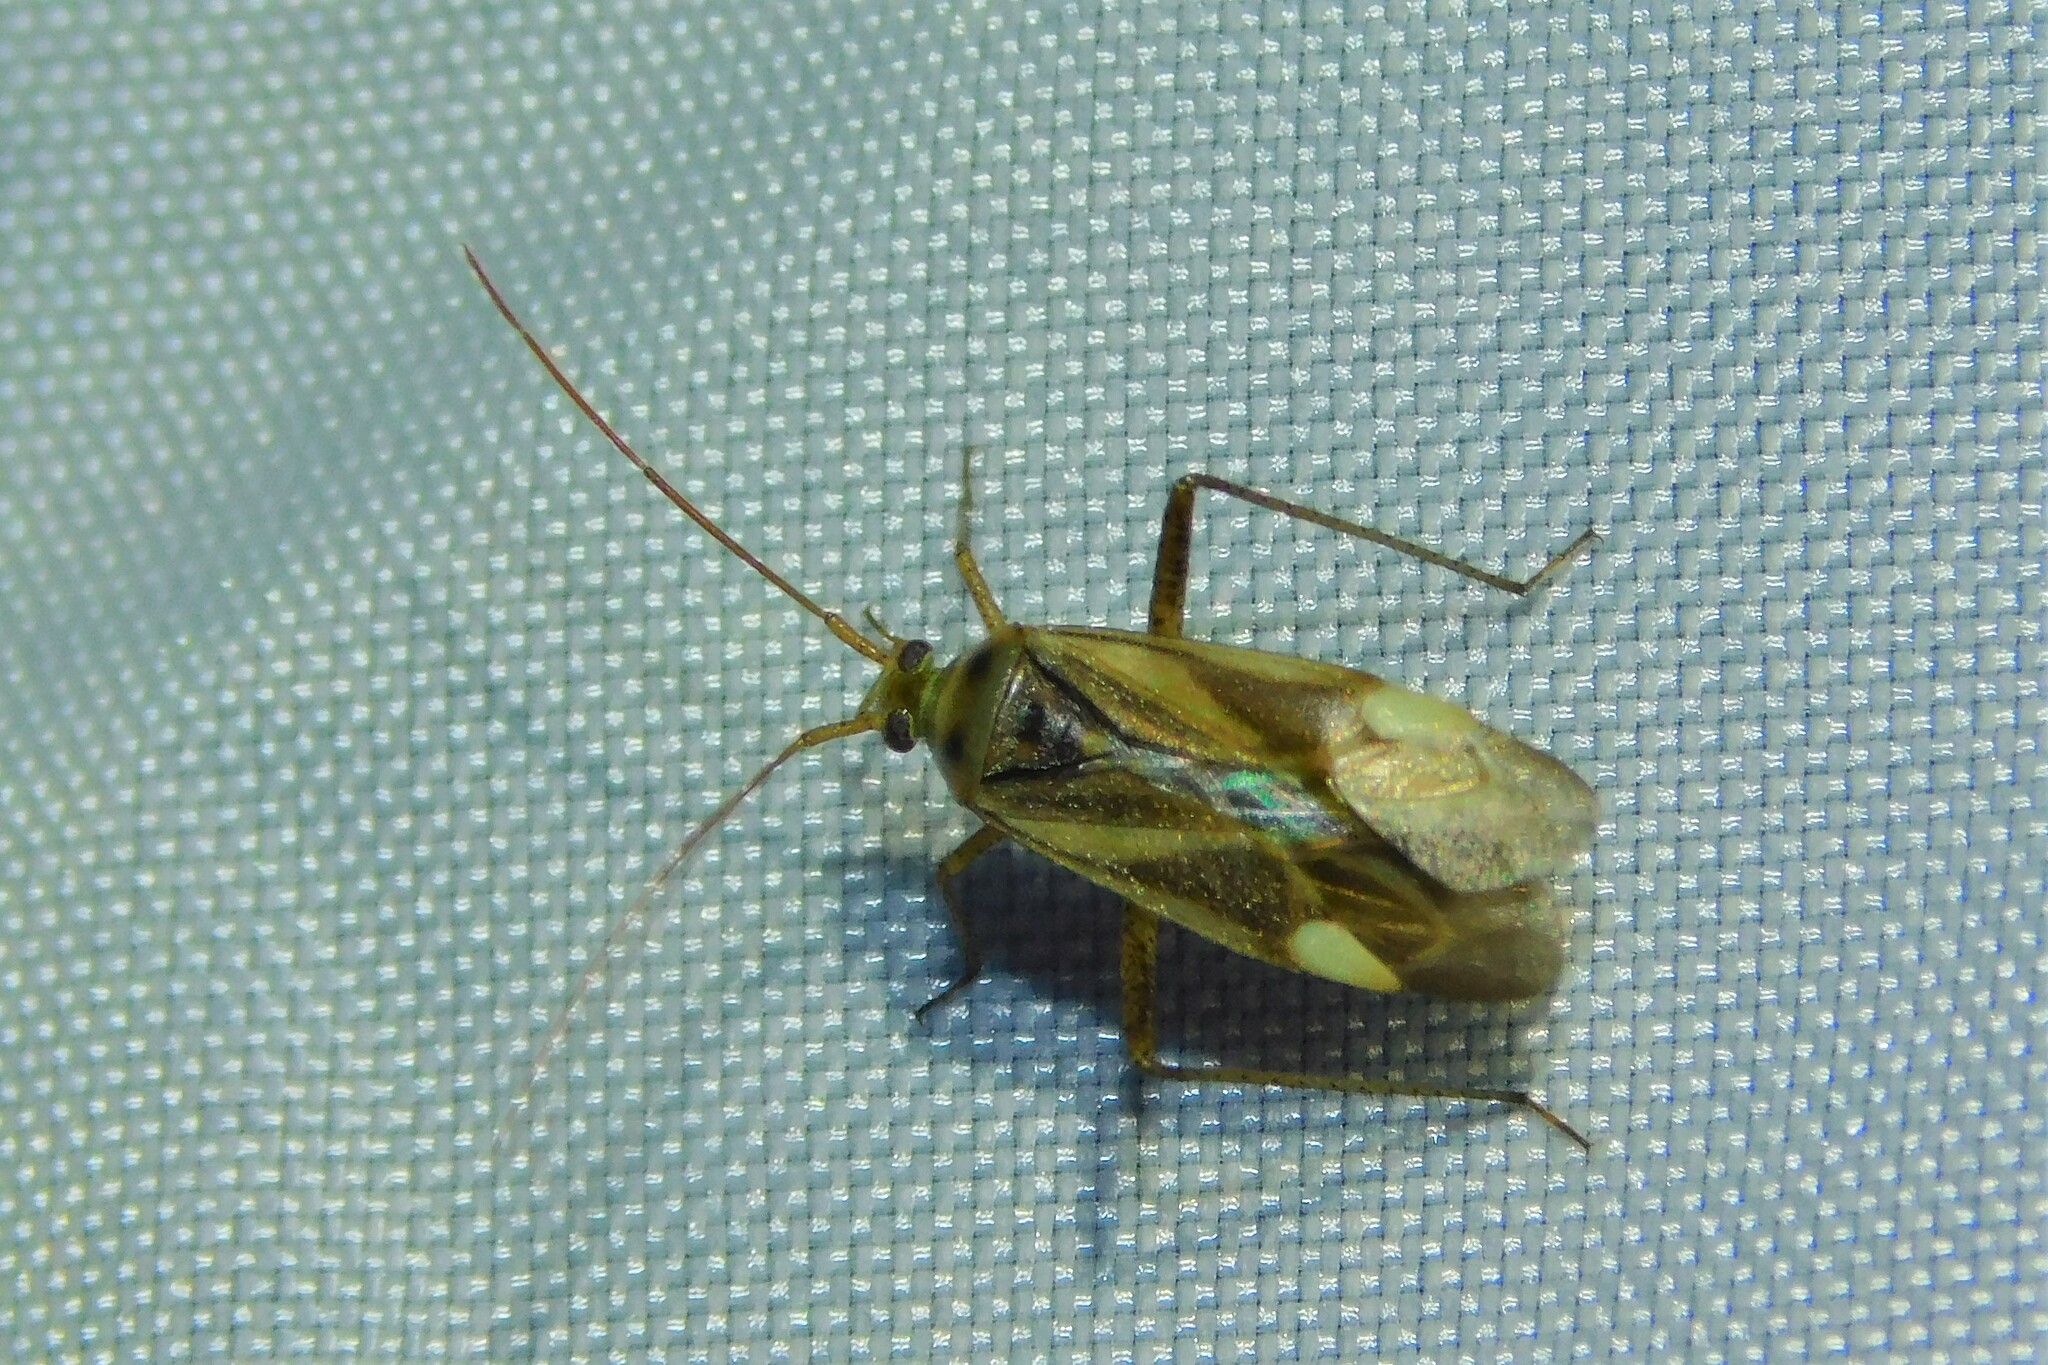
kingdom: Animalia
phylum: Arthropoda
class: Insecta
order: Hemiptera
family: Miridae
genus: Adelphocoris
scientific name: Adelphocoris lineolatus
